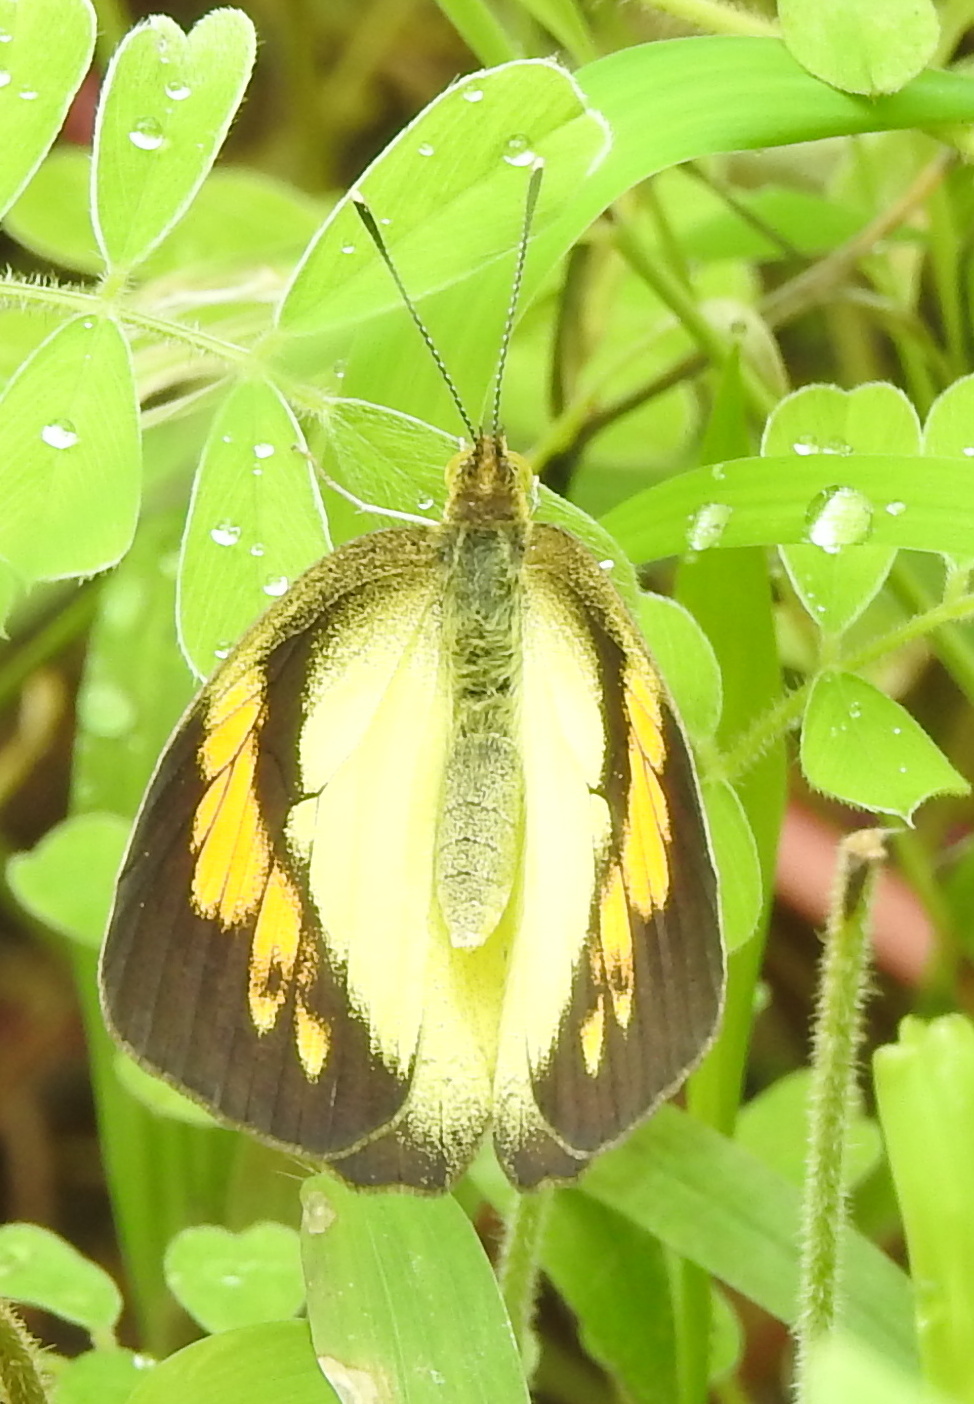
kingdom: Animalia
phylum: Arthropoda
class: Insecta
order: Lepidoptera
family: Pieridae
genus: Ixias
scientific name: Ixias pyrene
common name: Yellow orange tip
